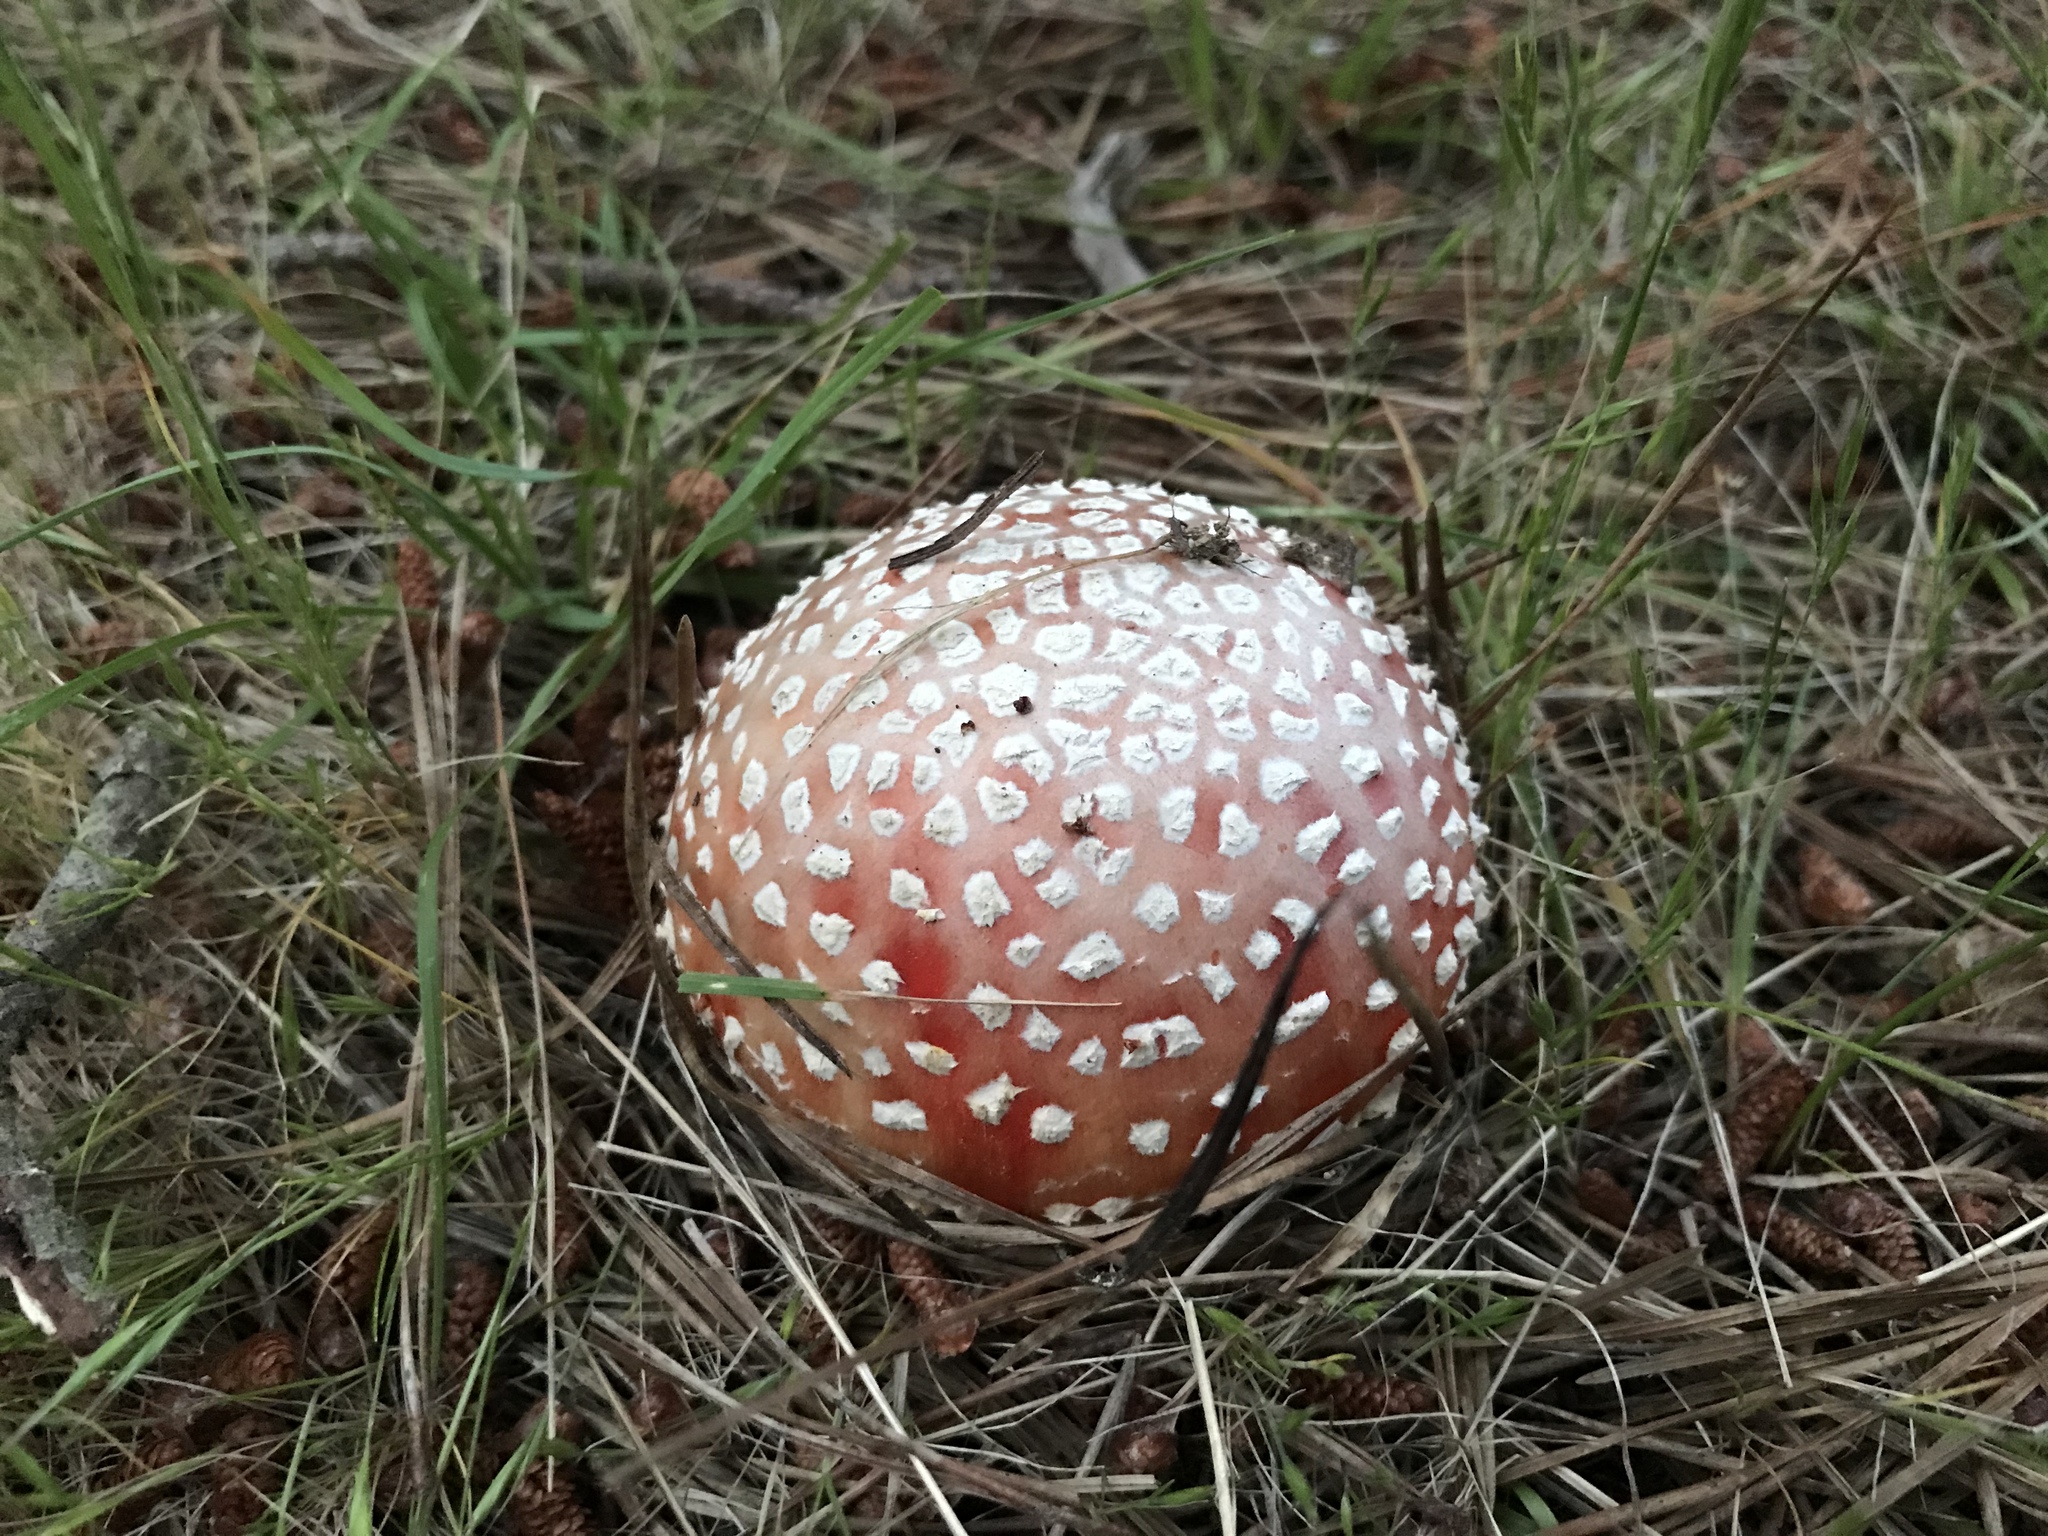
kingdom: Fungi
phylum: Basidiomycota
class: Agaricomycetes
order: Agaricales
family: Amanitaceae
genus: Amanita
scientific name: Amanita muscaria
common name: Fly agaric
